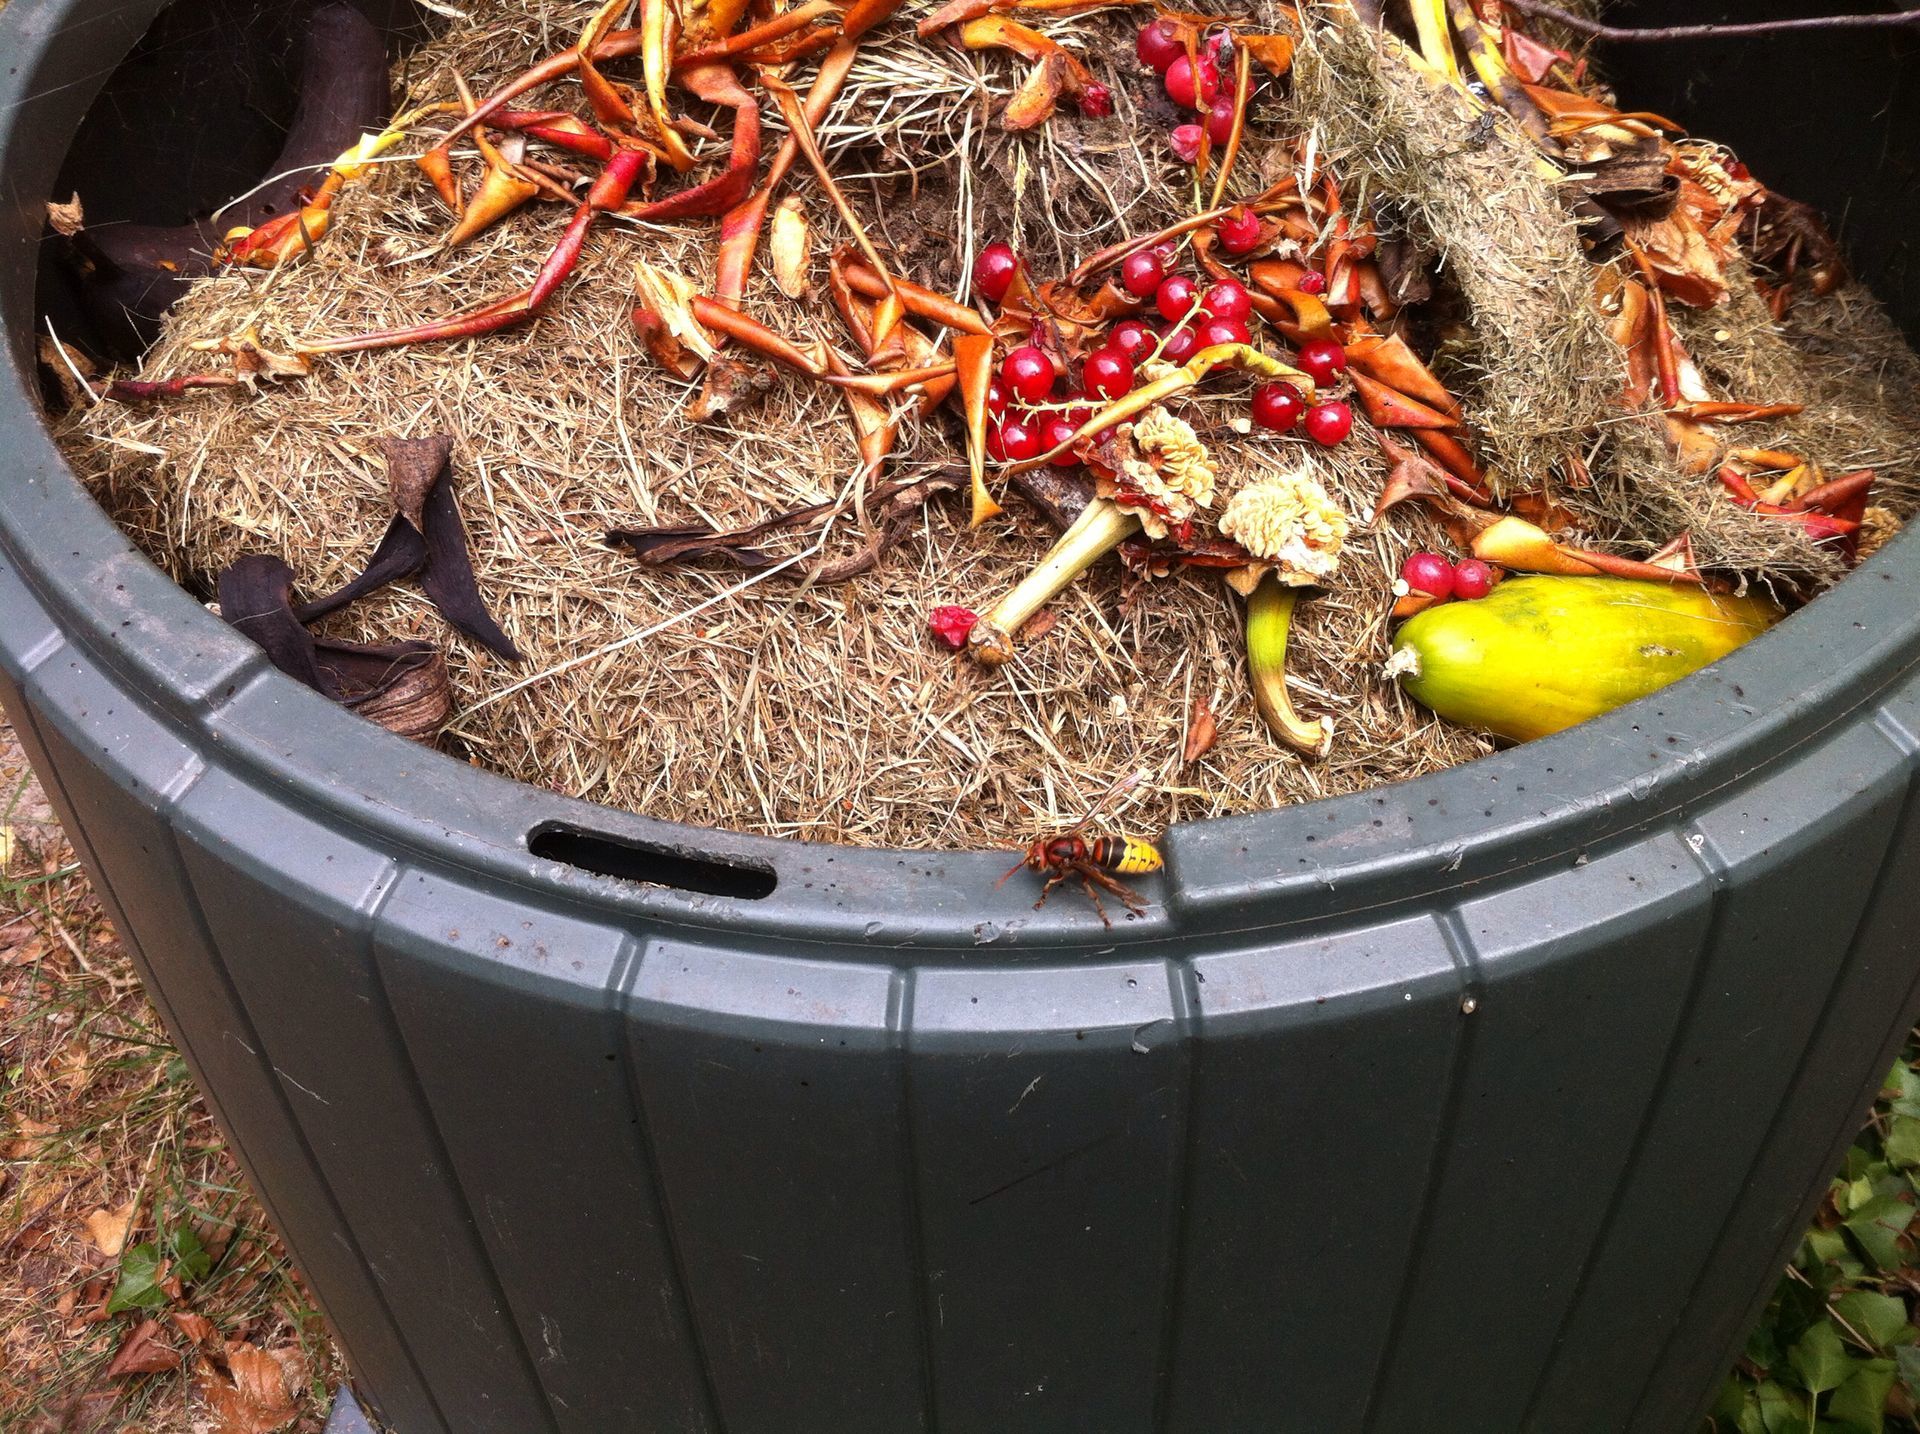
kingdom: Animalia
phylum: Arthropoda
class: Insecta
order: Hymenoptera
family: Vespidae
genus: Vespa
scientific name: Vespa crabro
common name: Hornet
